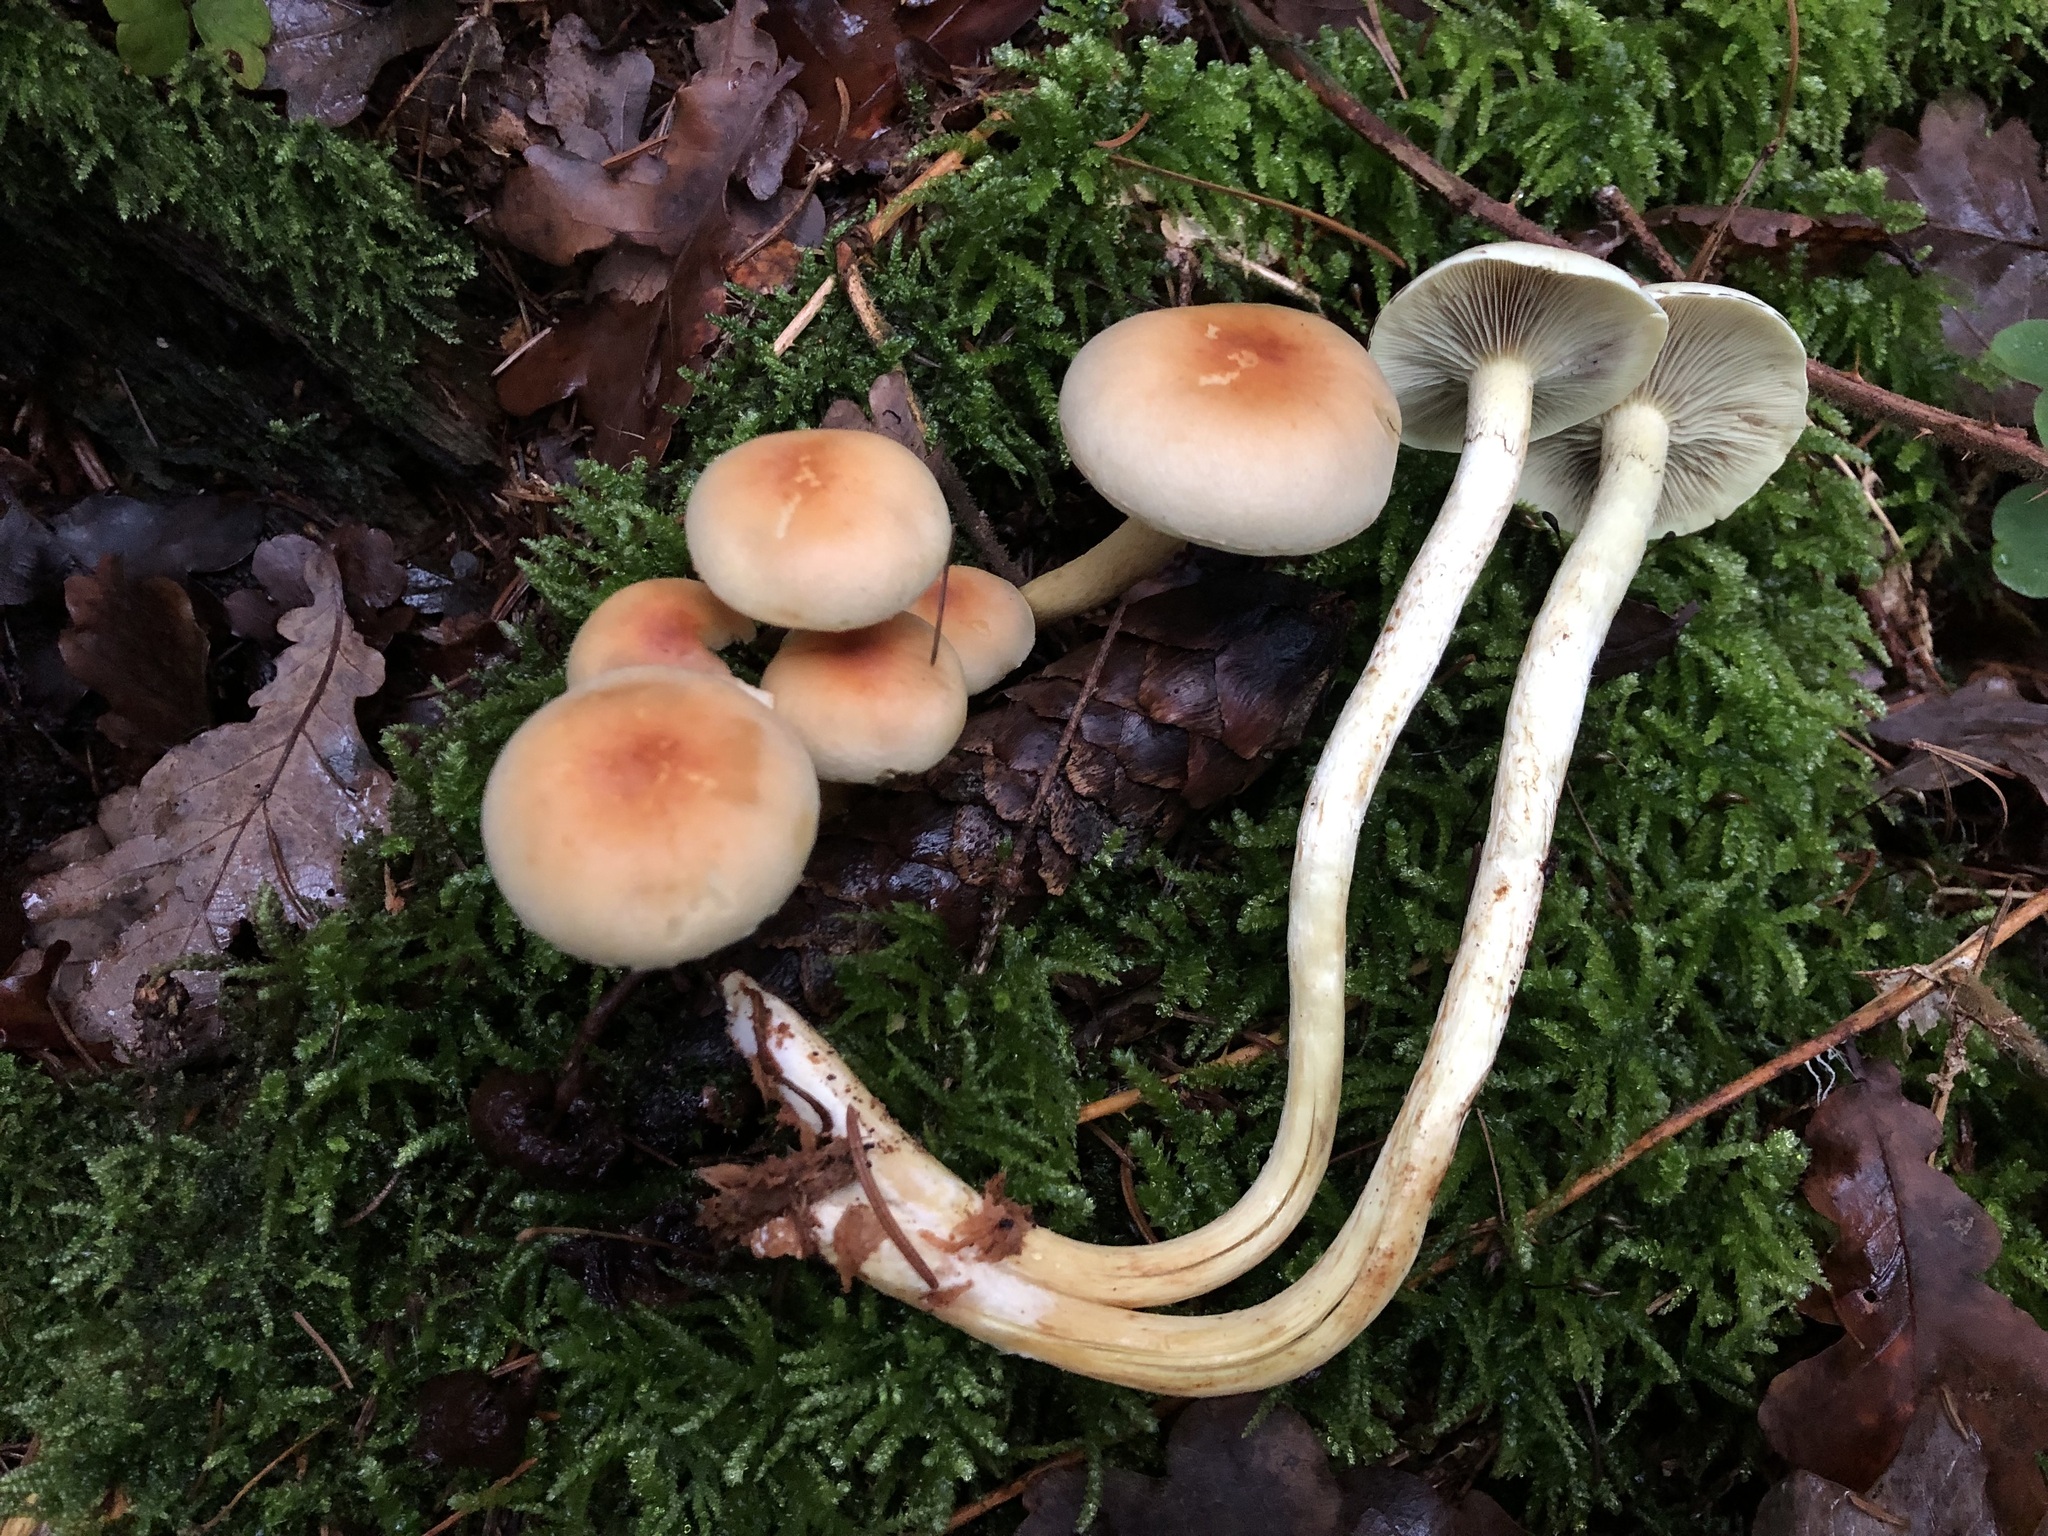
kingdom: Fungi
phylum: Basidiomycota
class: Agaricomycetes
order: Agaricales
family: Strophariaceae
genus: Hypholoma
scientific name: Hypholoma fasciculare
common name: Sulphur tuft
